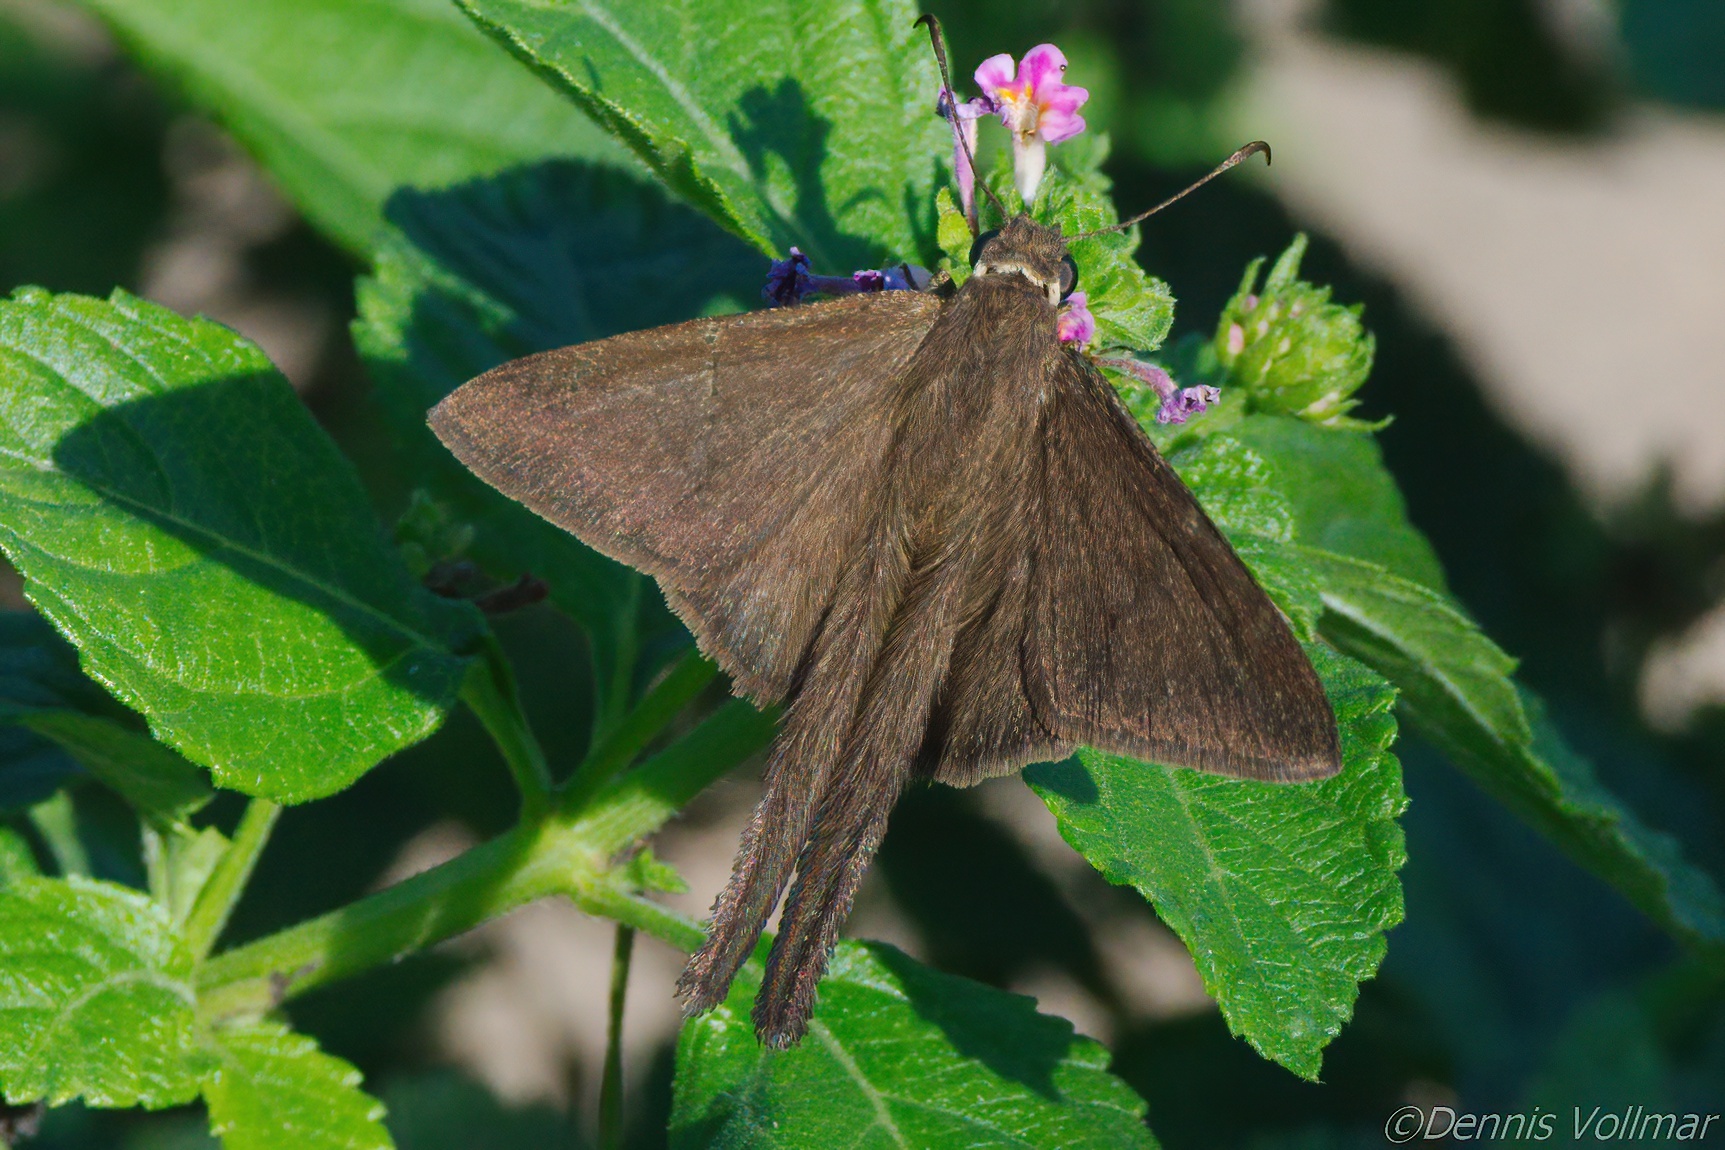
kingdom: Animalia
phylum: Arthropoda
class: Insecta
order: Lepidoptera
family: Hesperiidae
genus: Urbanus
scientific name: Urbanus procne
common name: Brown longtail
